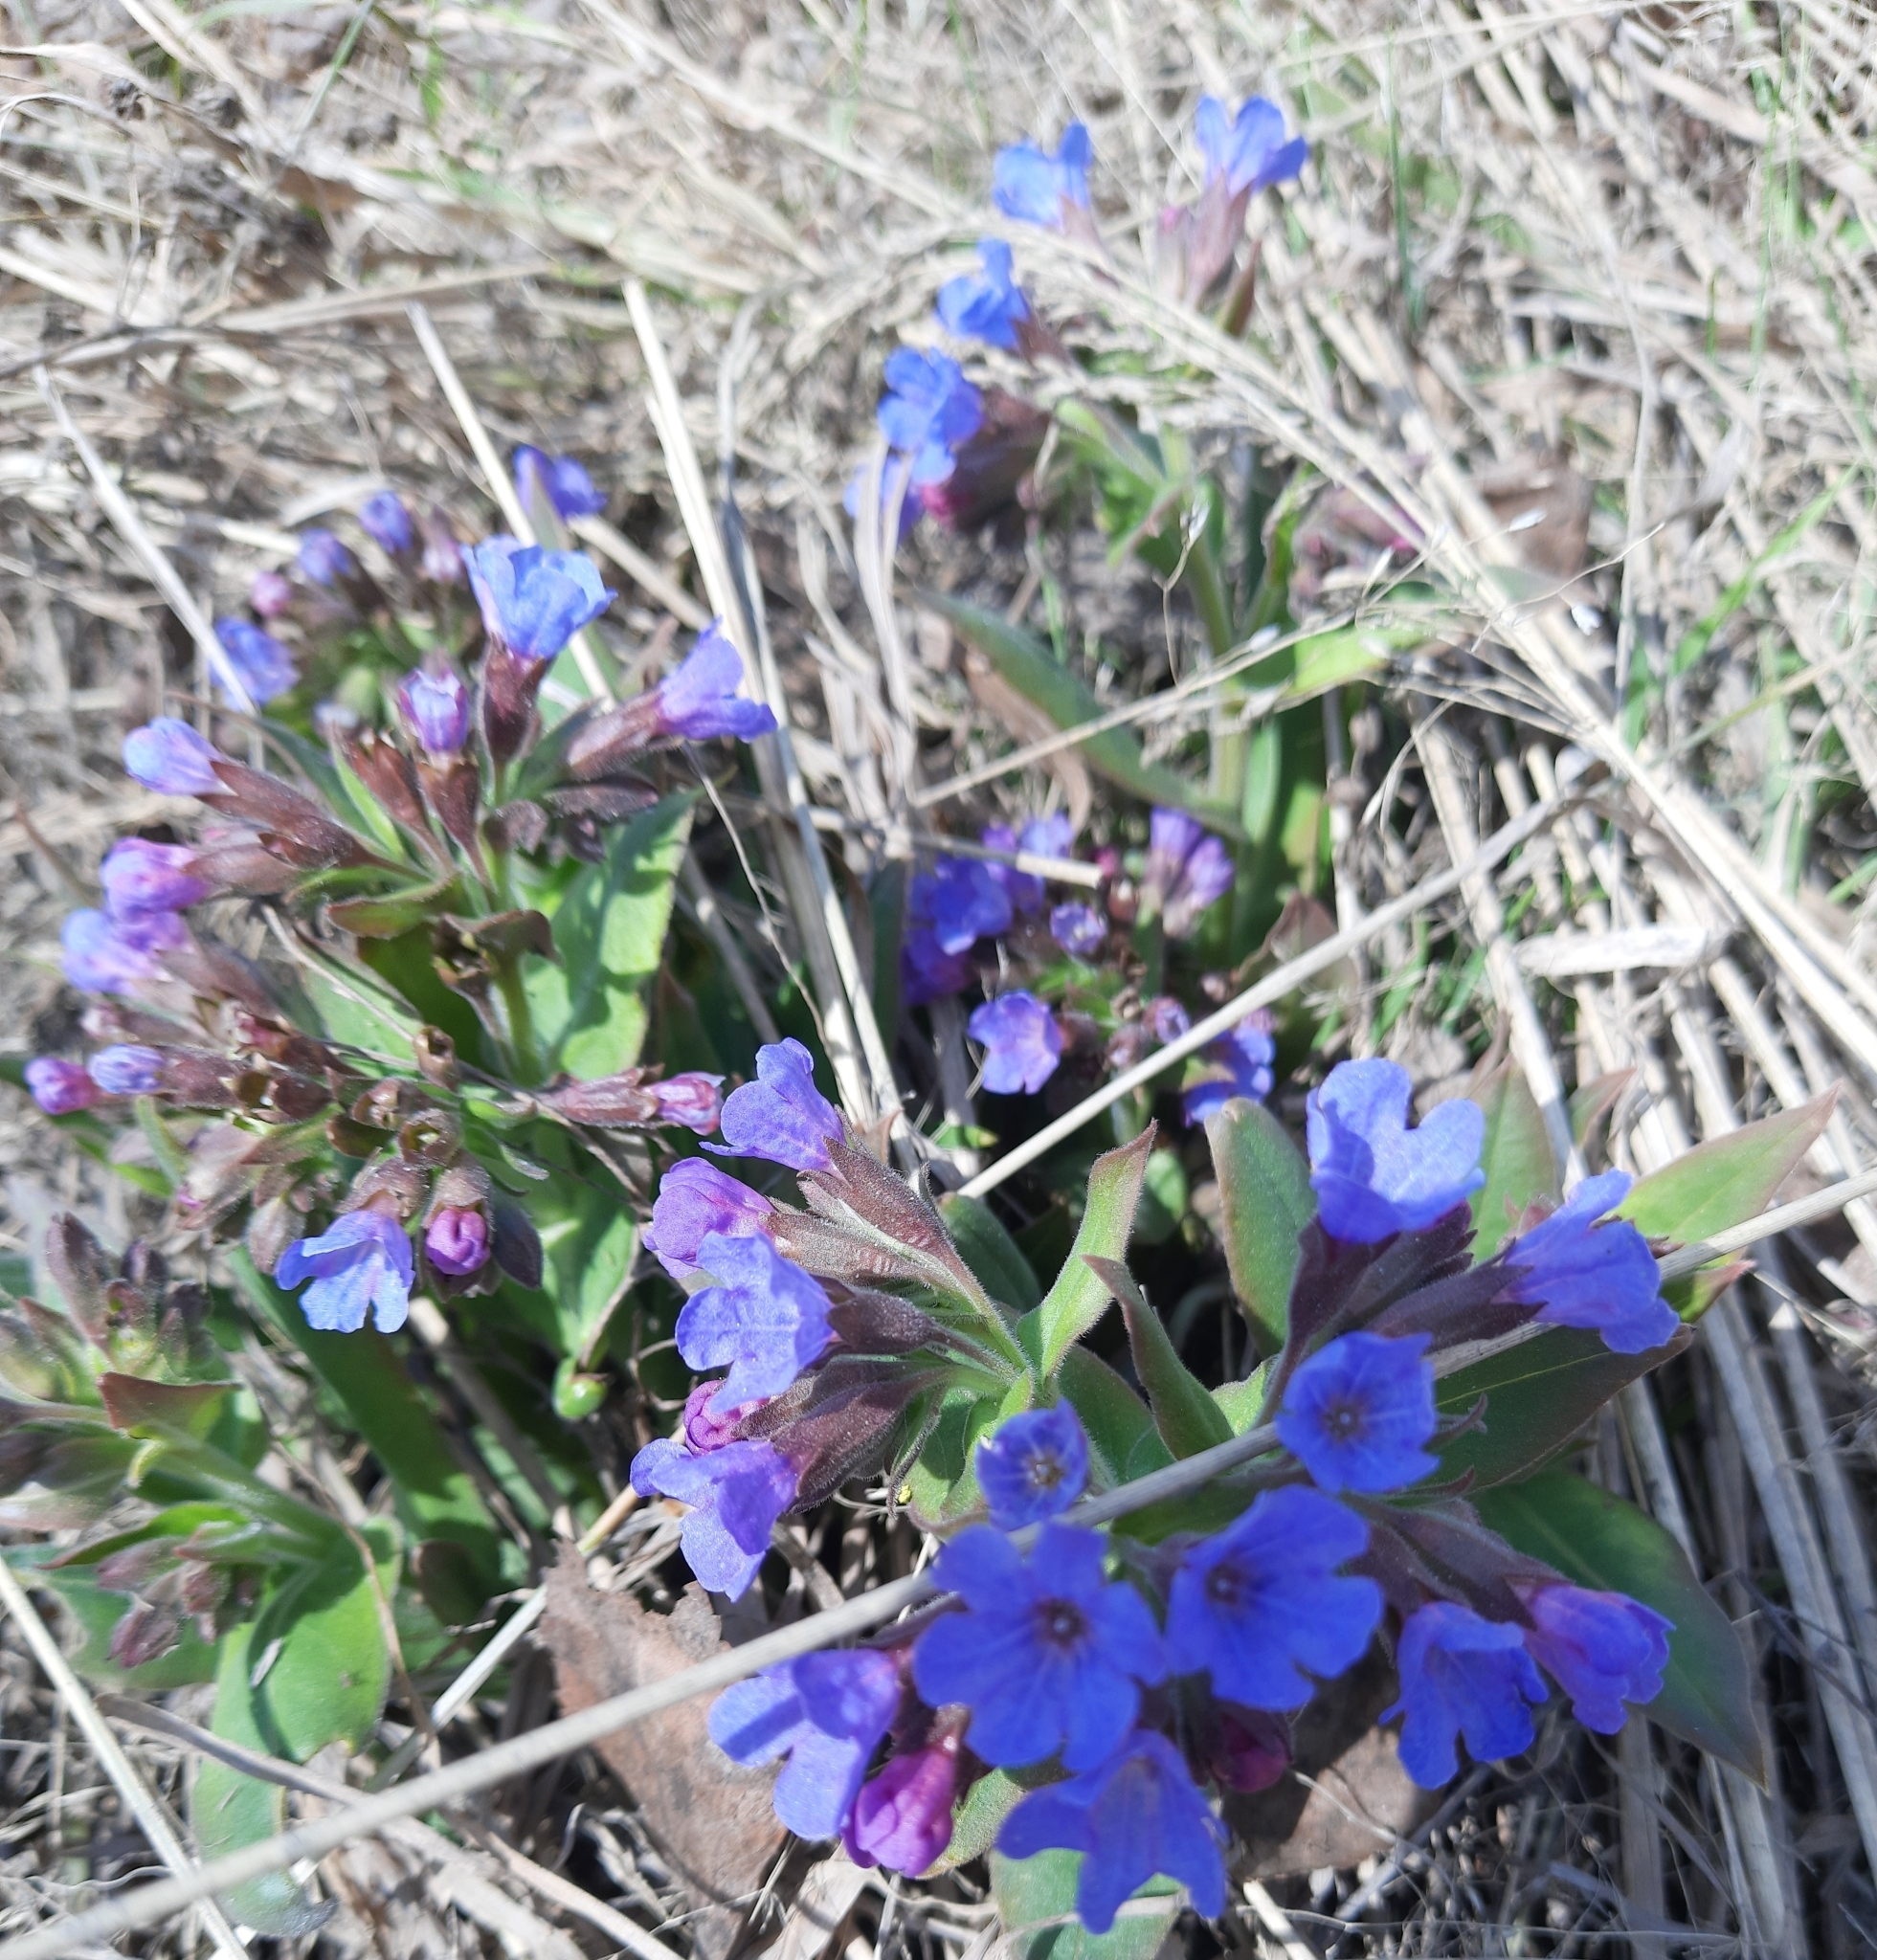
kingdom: Plantae
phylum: Tracheophyta
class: Magnoliopsida
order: Boraginales
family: Boraginaceae
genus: Pulmonaria
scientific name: Pulmonaria mollis
